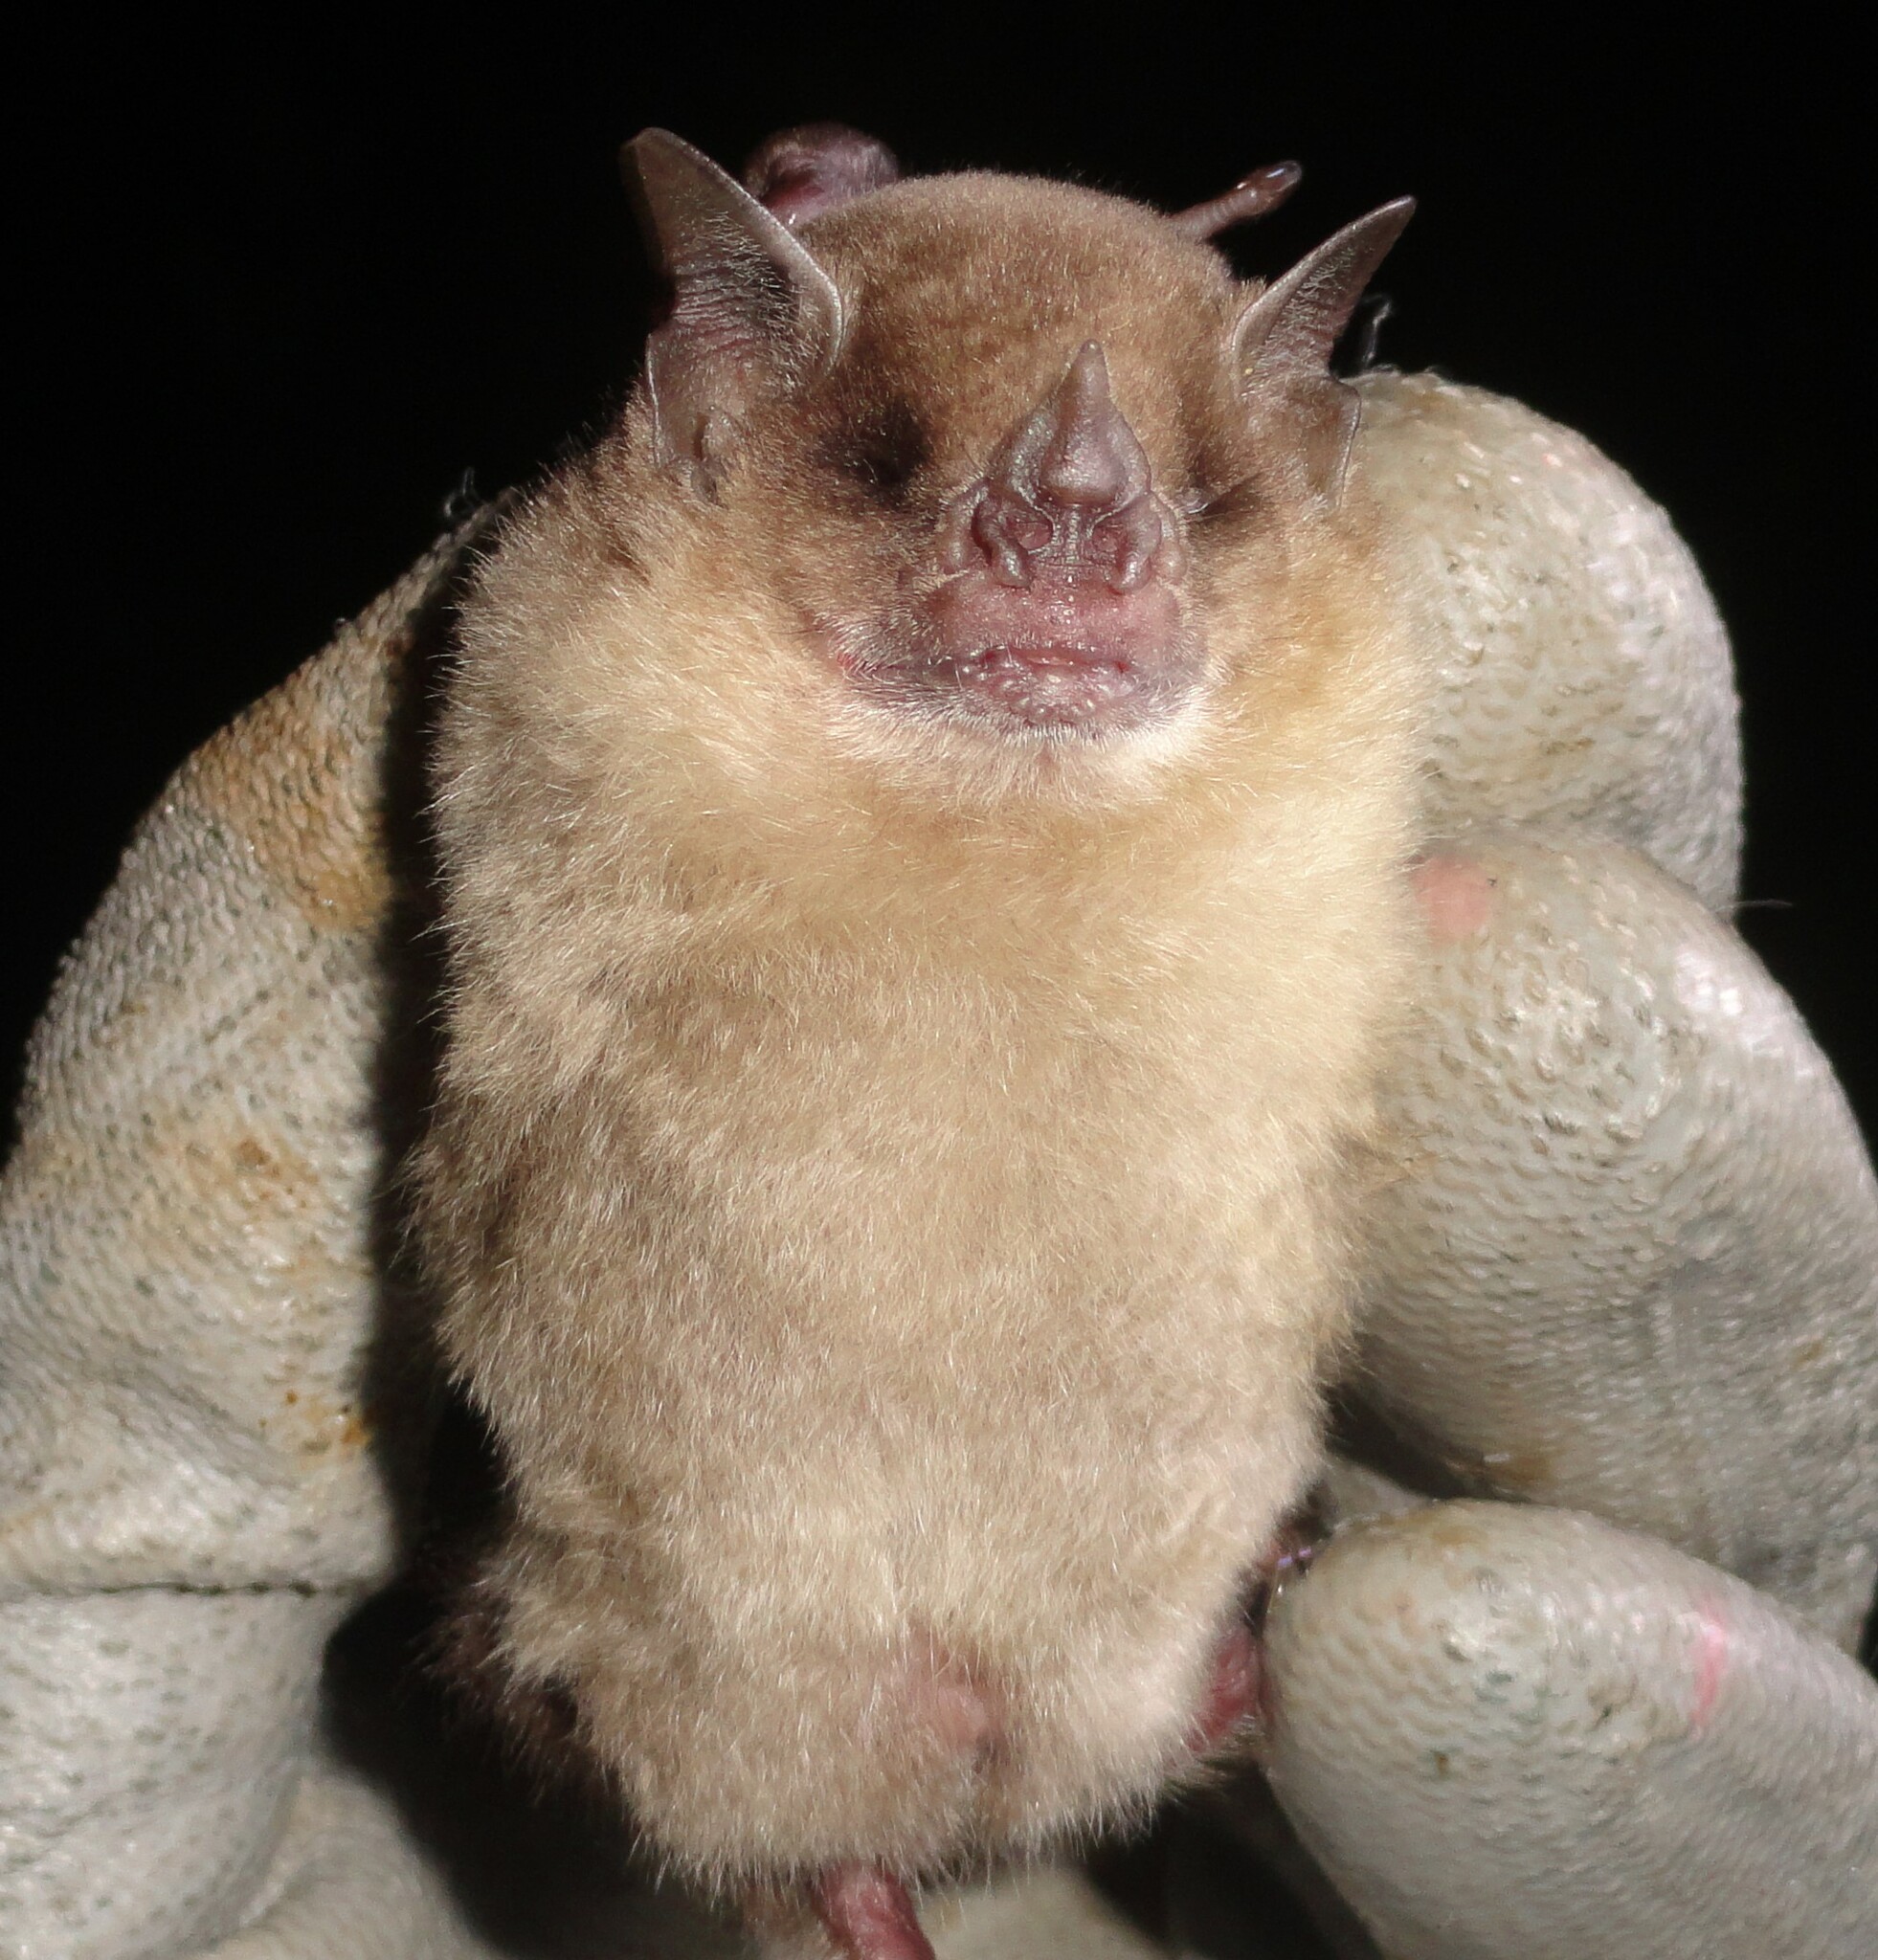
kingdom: Animalia
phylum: Chordata
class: Mammalia
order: Chiroptera
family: Phyllostomidae
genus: Sturnira
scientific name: Sturnira lilium
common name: Little yellow-shouldered bat
